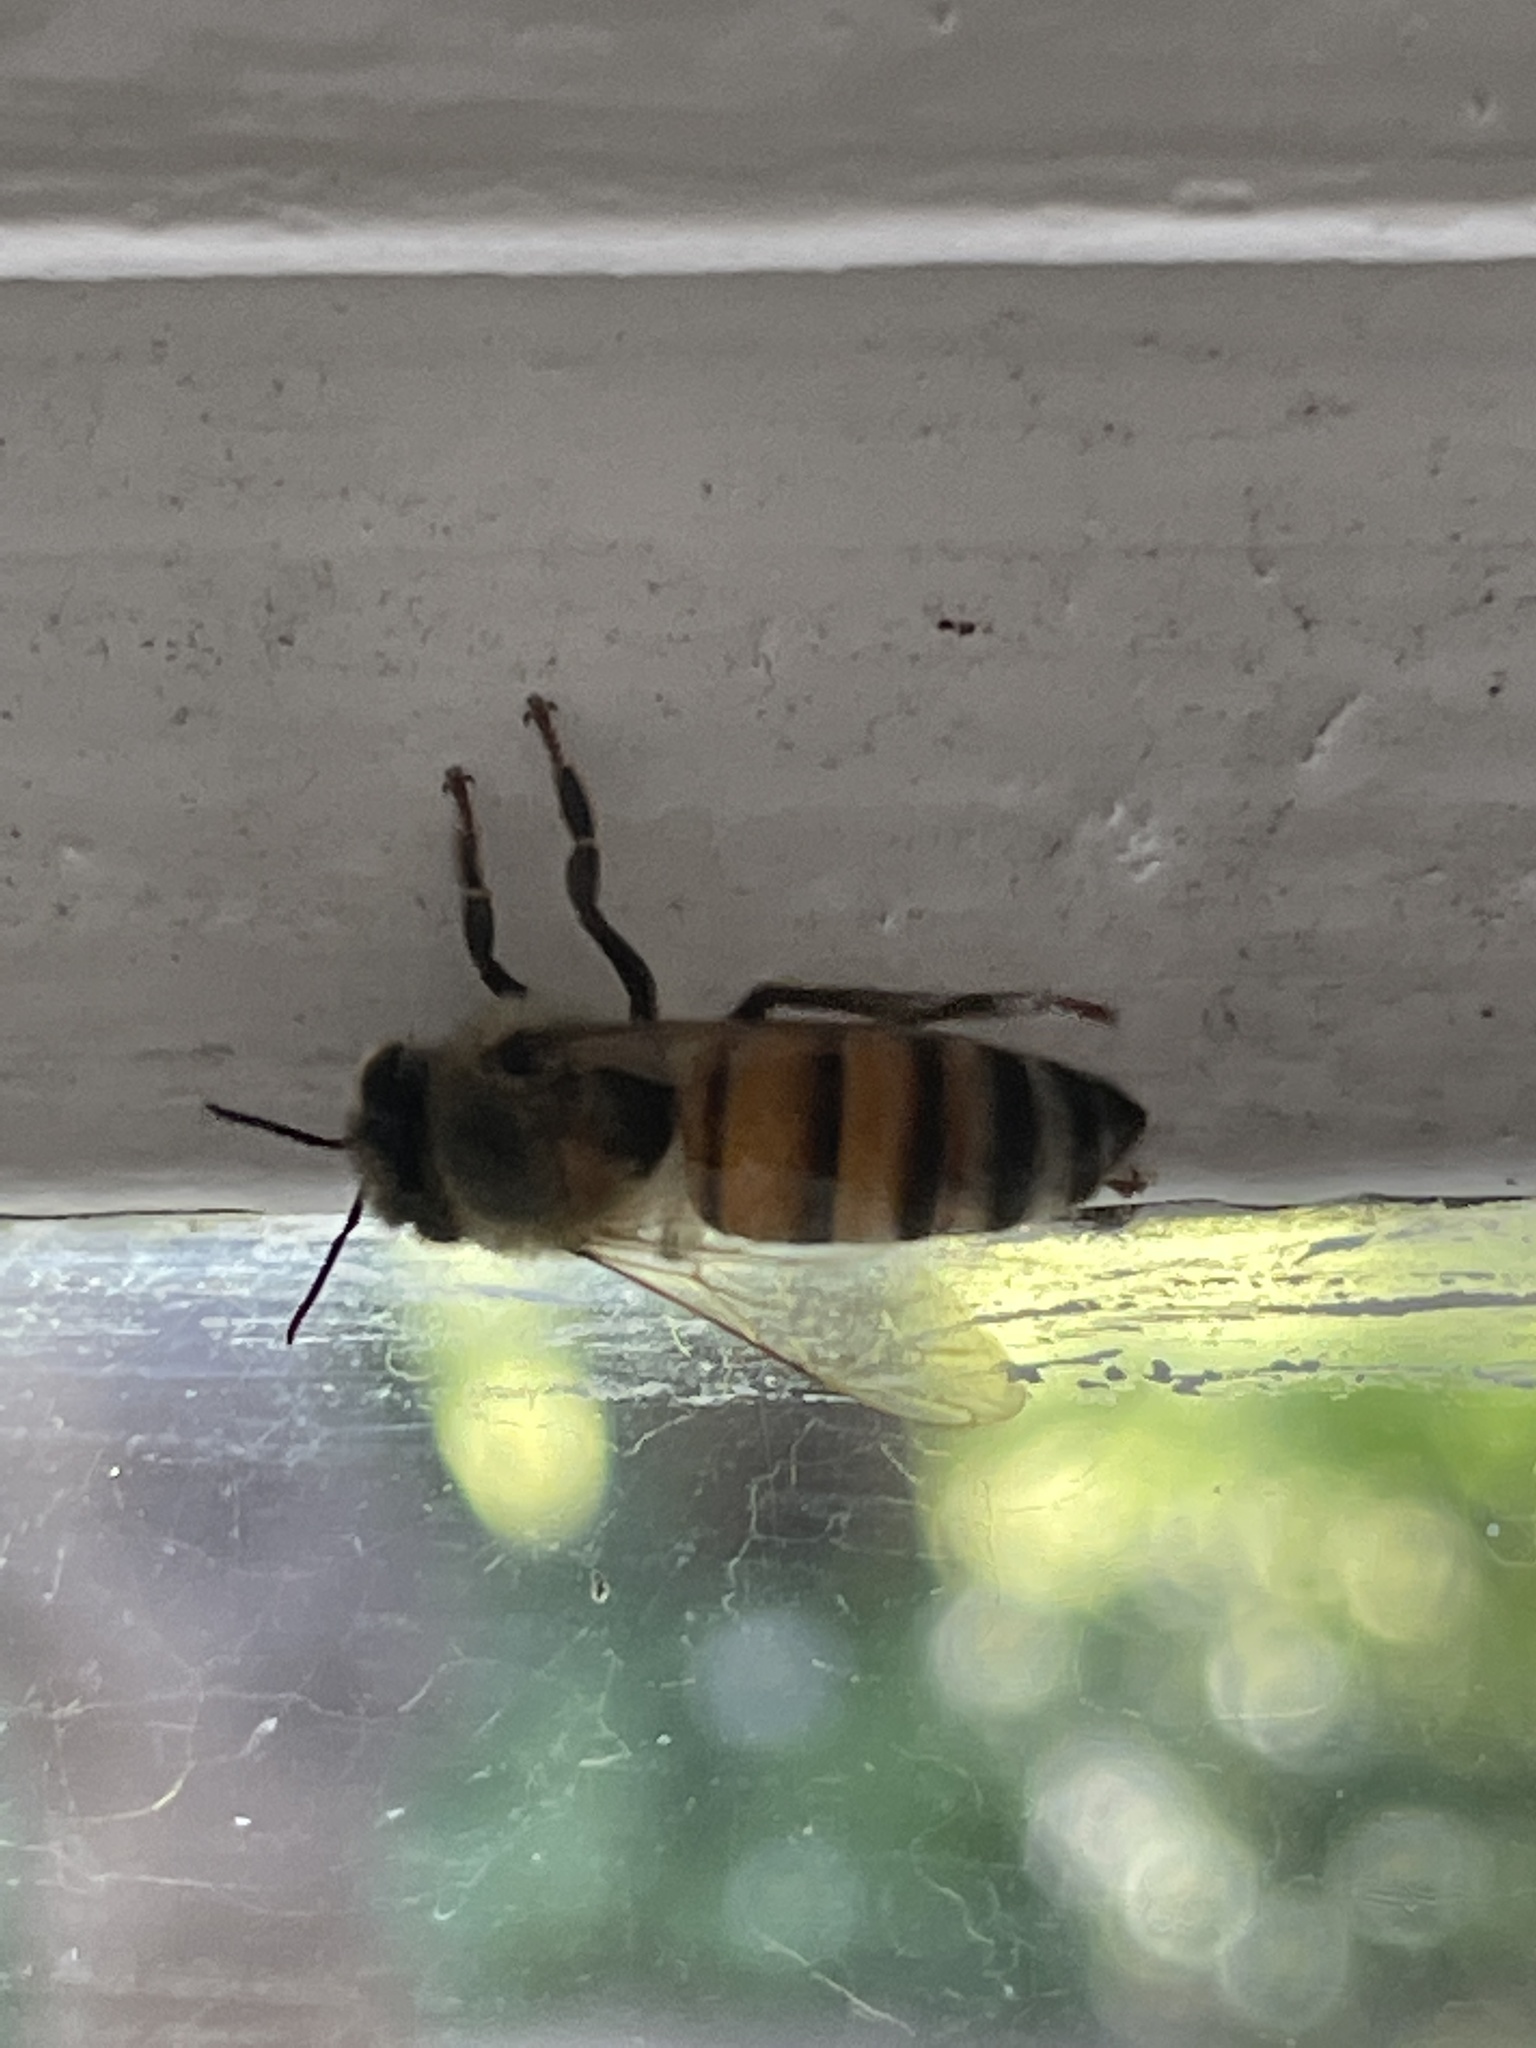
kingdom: Animalia
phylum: Arthropoda
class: Insecta
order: Hymenoptera
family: Apidae
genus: Apis
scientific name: Apis mellifera
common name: Honey bee
